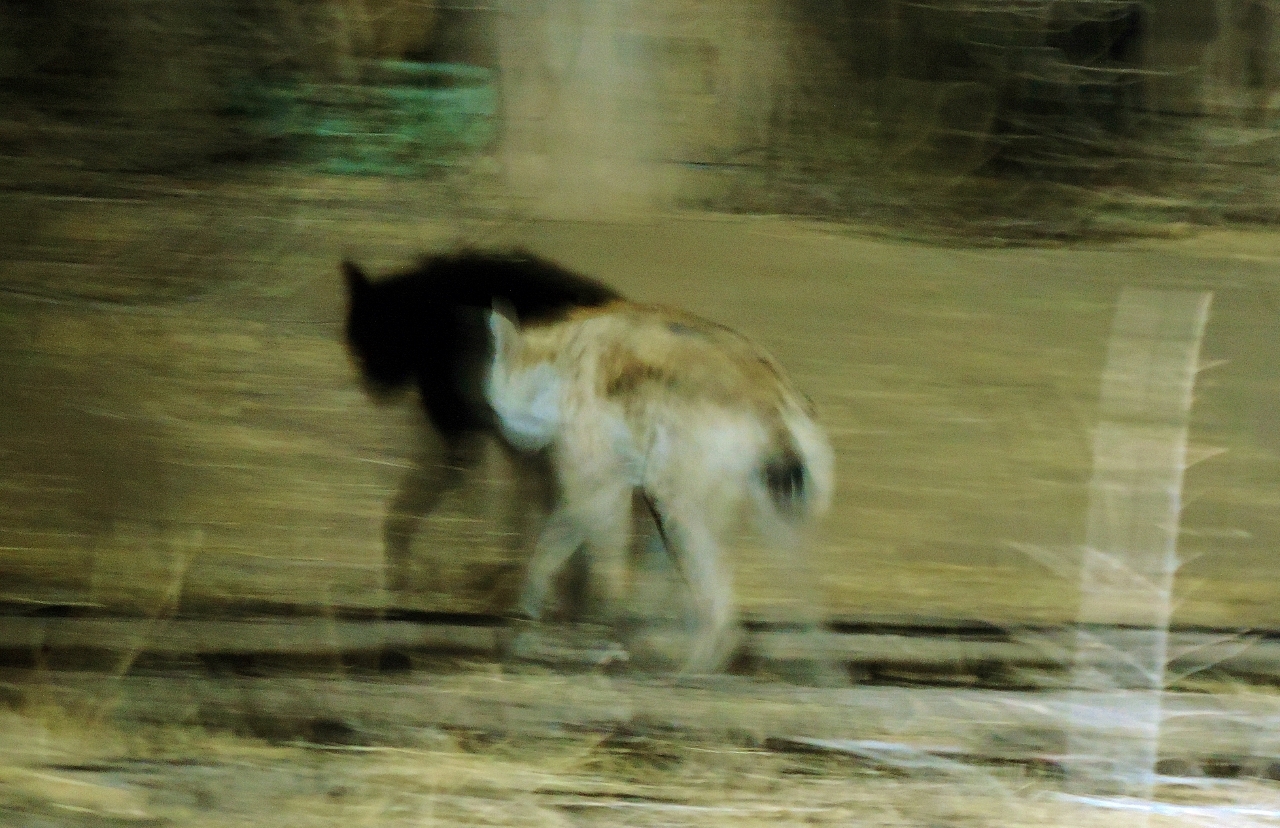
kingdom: Animalia
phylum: Chordata
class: Mammalia
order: Carnivora
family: Hyaenidae
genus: Crocuta
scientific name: Crocuta crocuta
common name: Spotted hyaena
